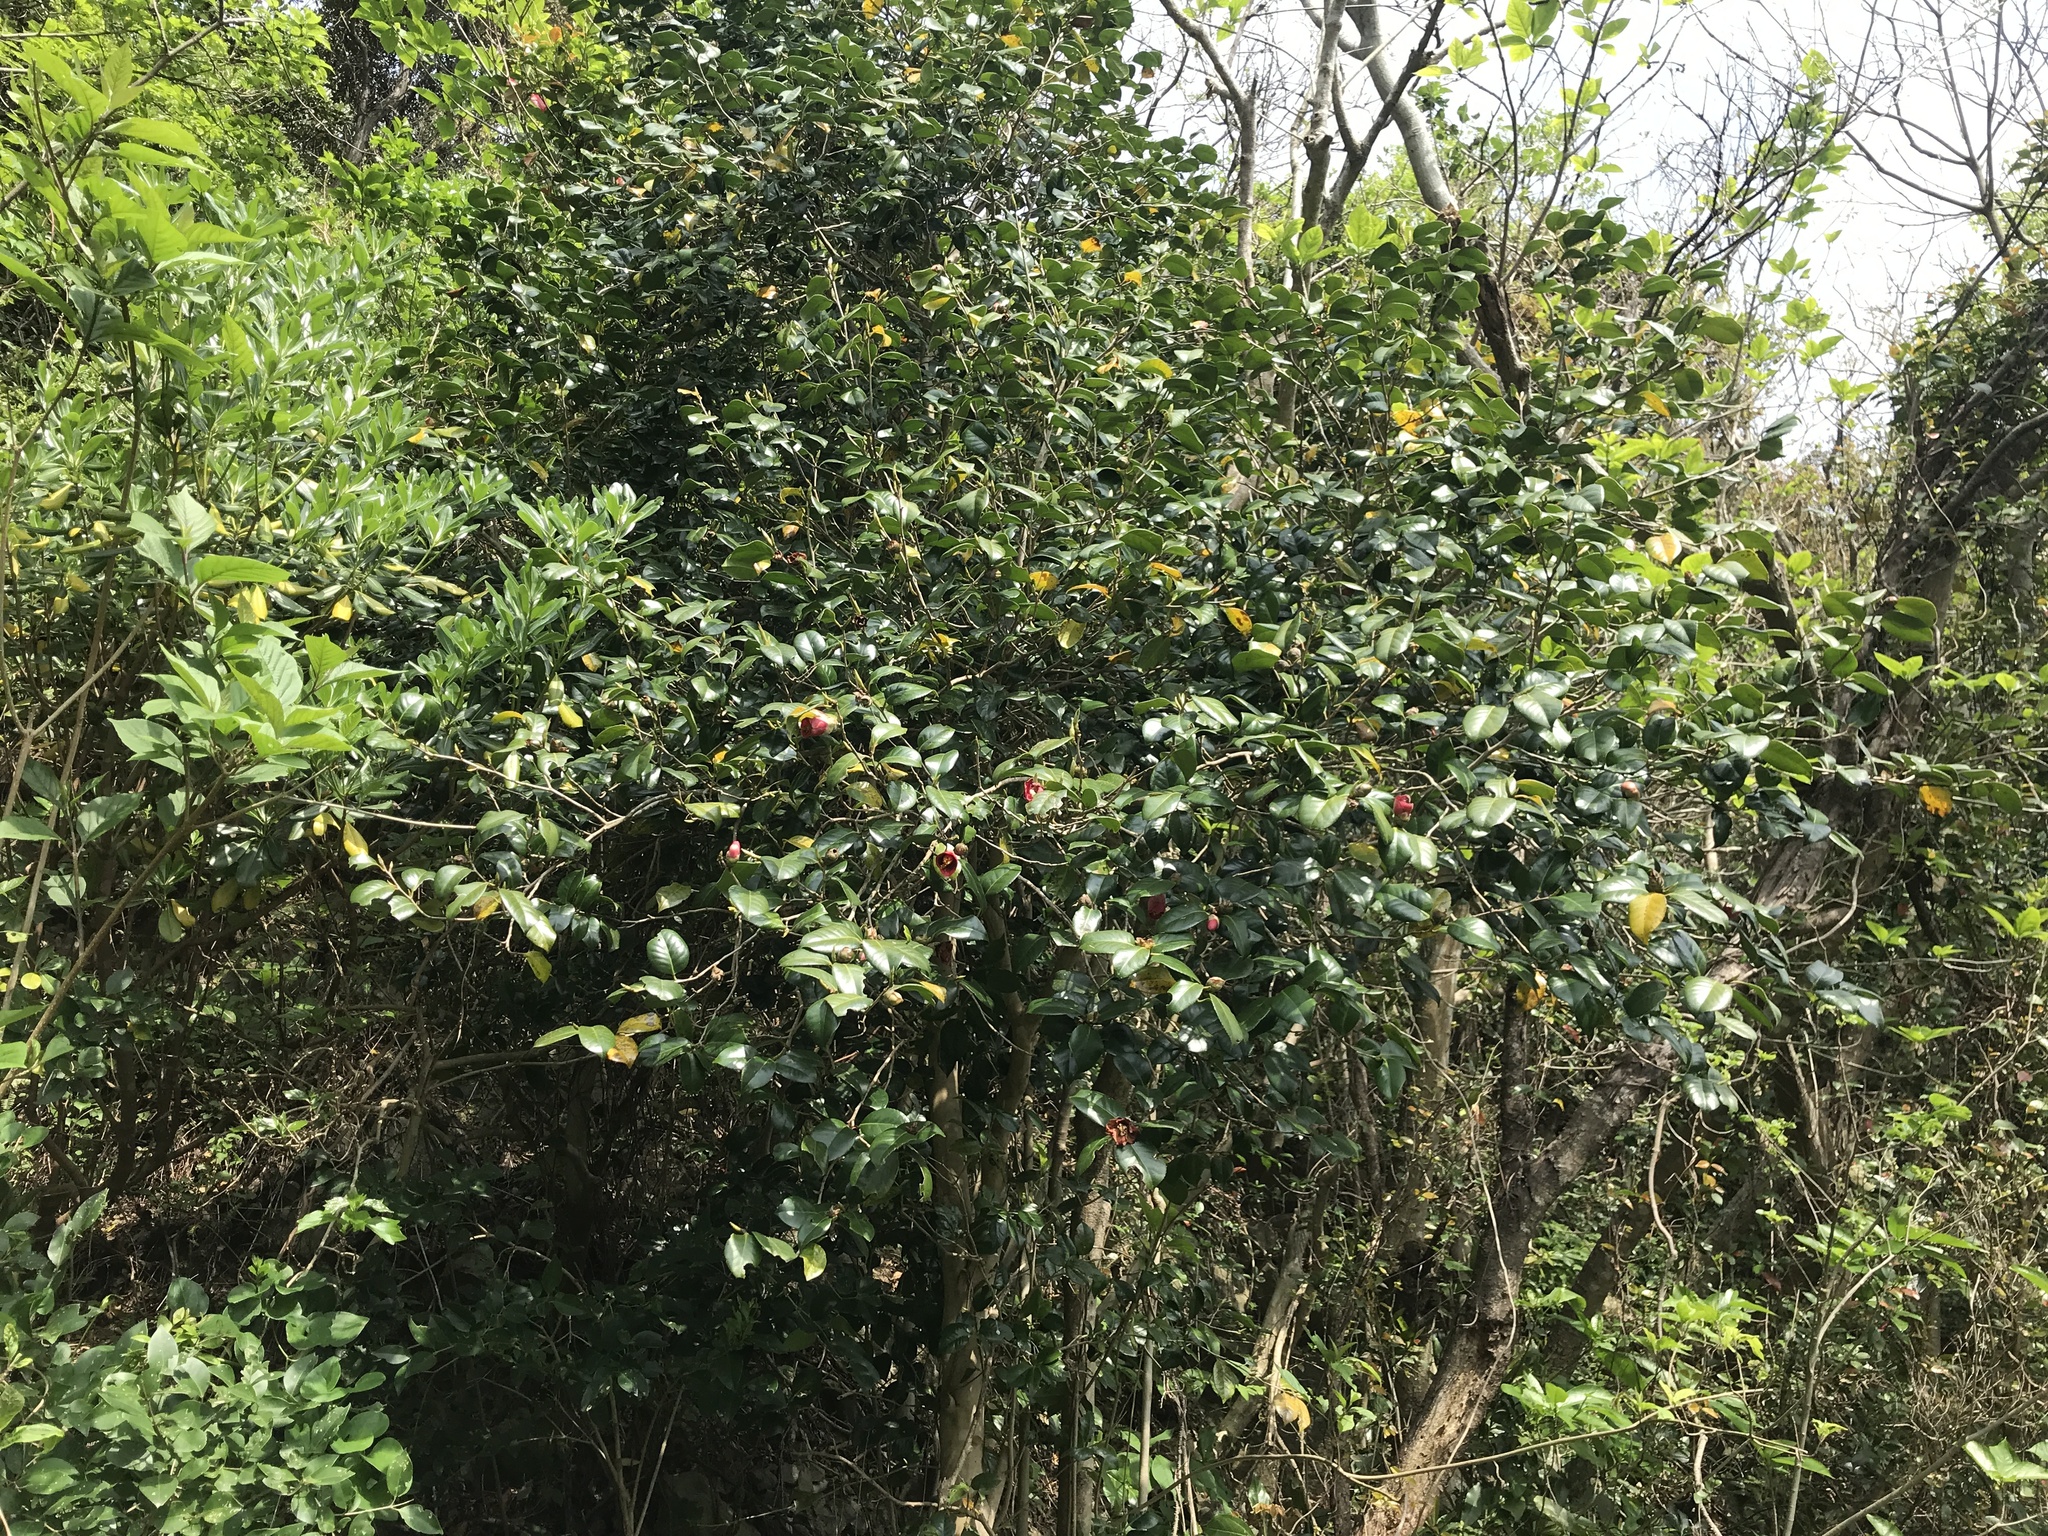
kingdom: Plantae
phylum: Tracheophyta
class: Magnoliopsida
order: Ericales
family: Theaceae
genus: Camellia
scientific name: Camellia japonica
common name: Camellia
